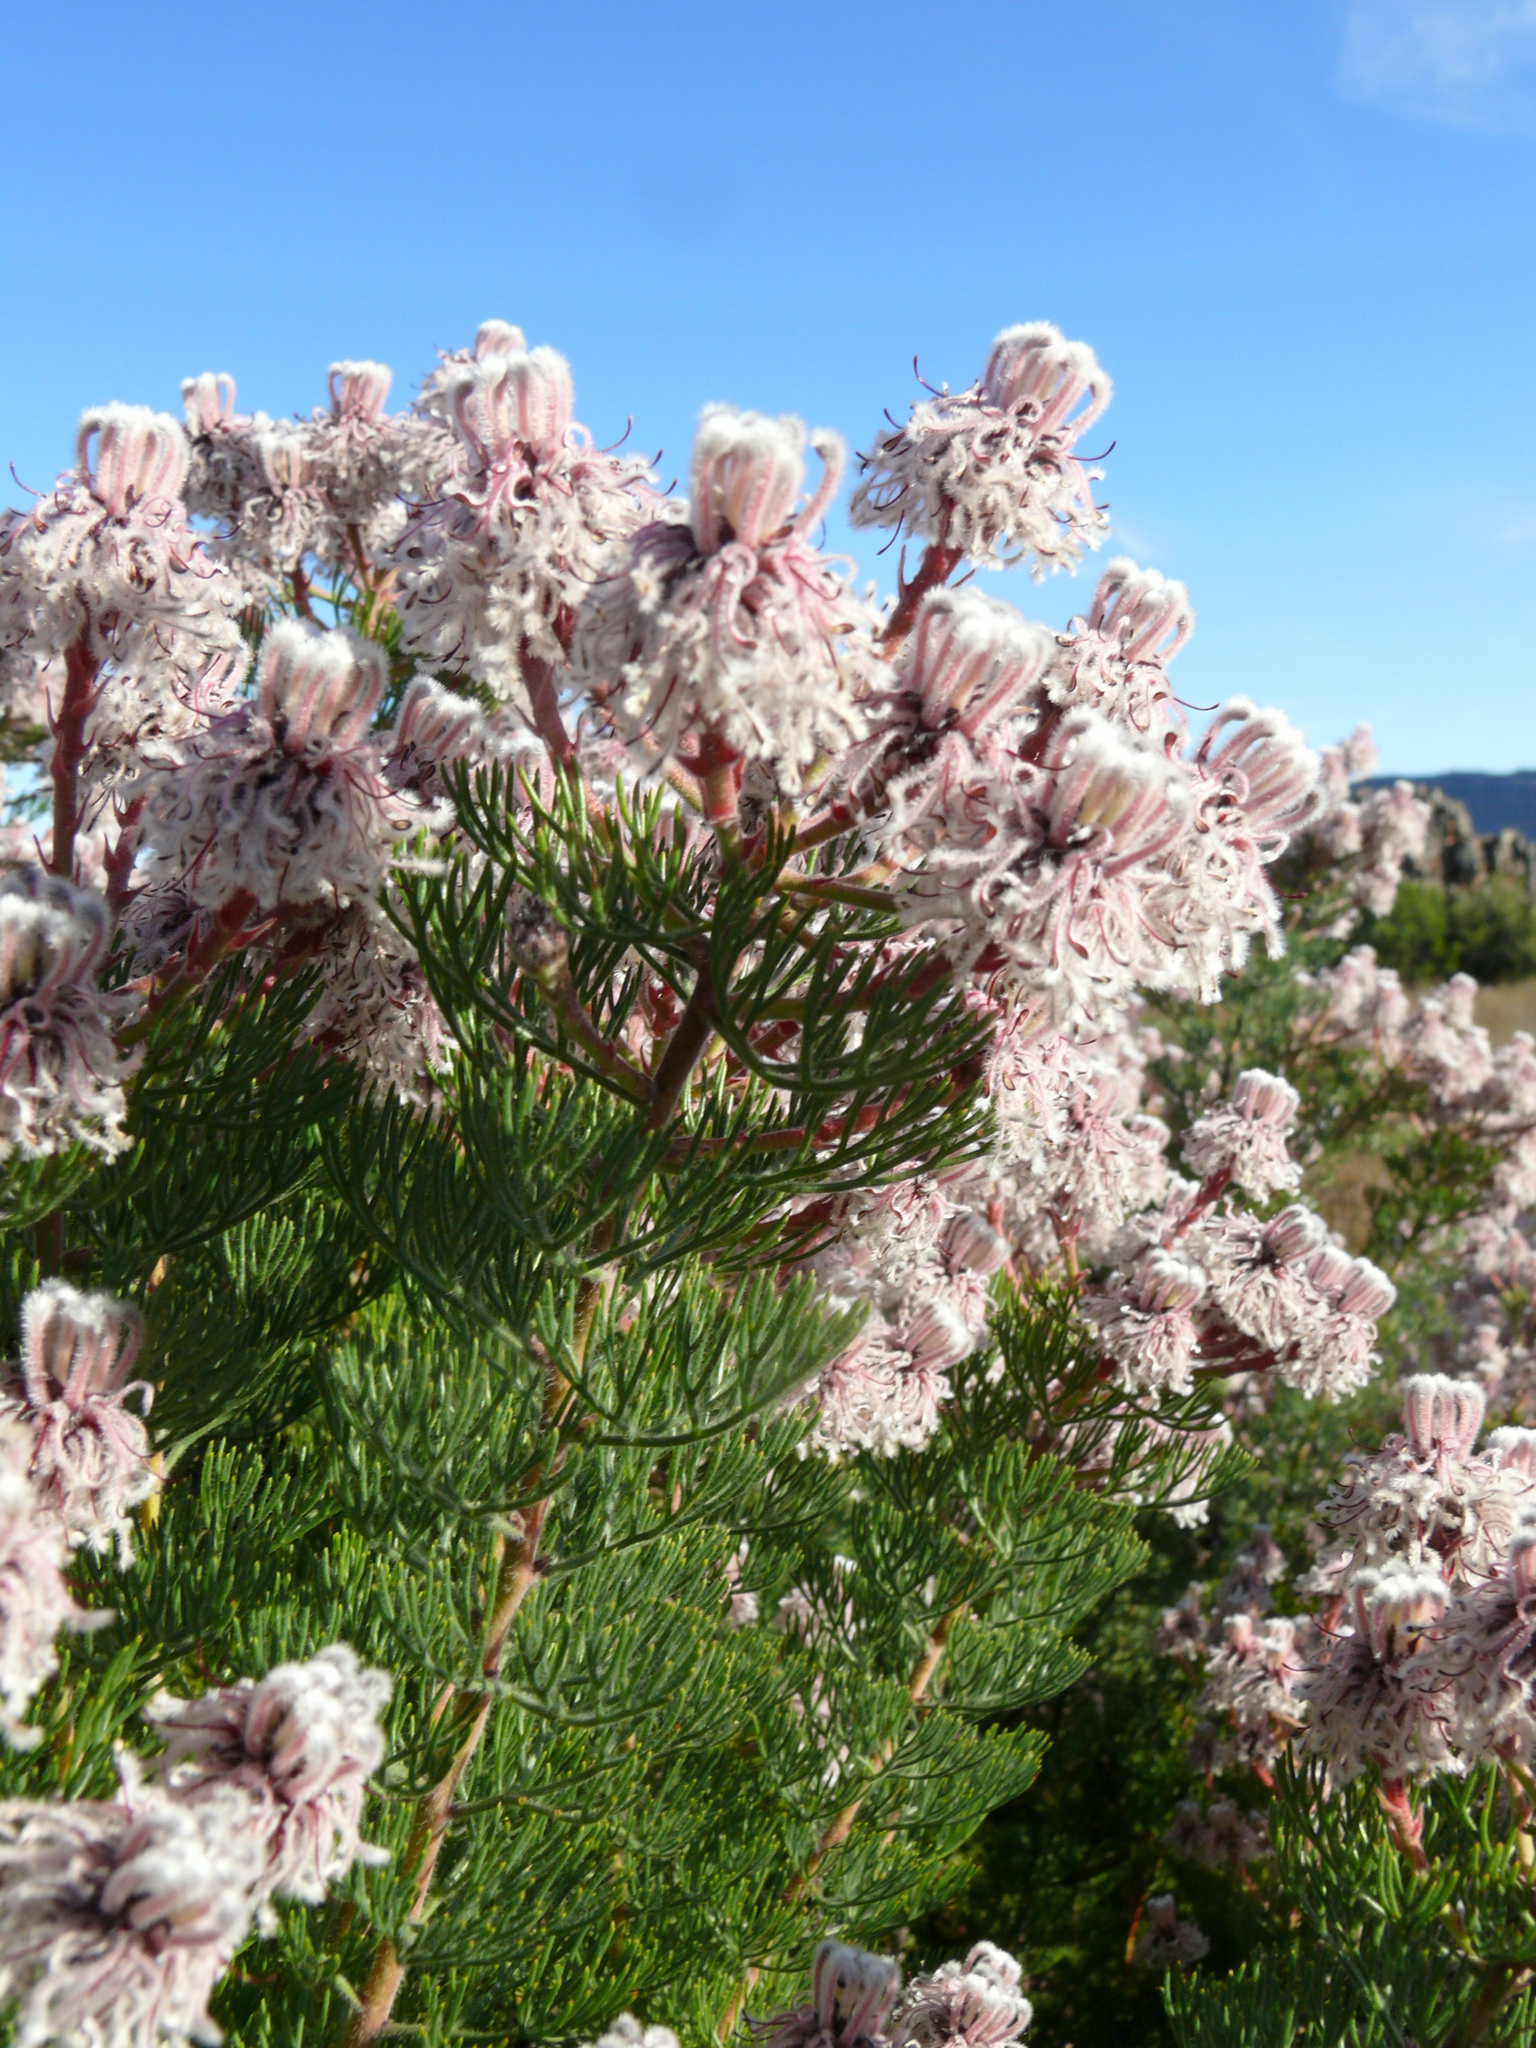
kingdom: Plantae
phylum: Tracheophyta
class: Magnoliopsida
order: Proteales
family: Proteaceae
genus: Serruria
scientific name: Serruria aitonii
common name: Marshmallow spiderhead
